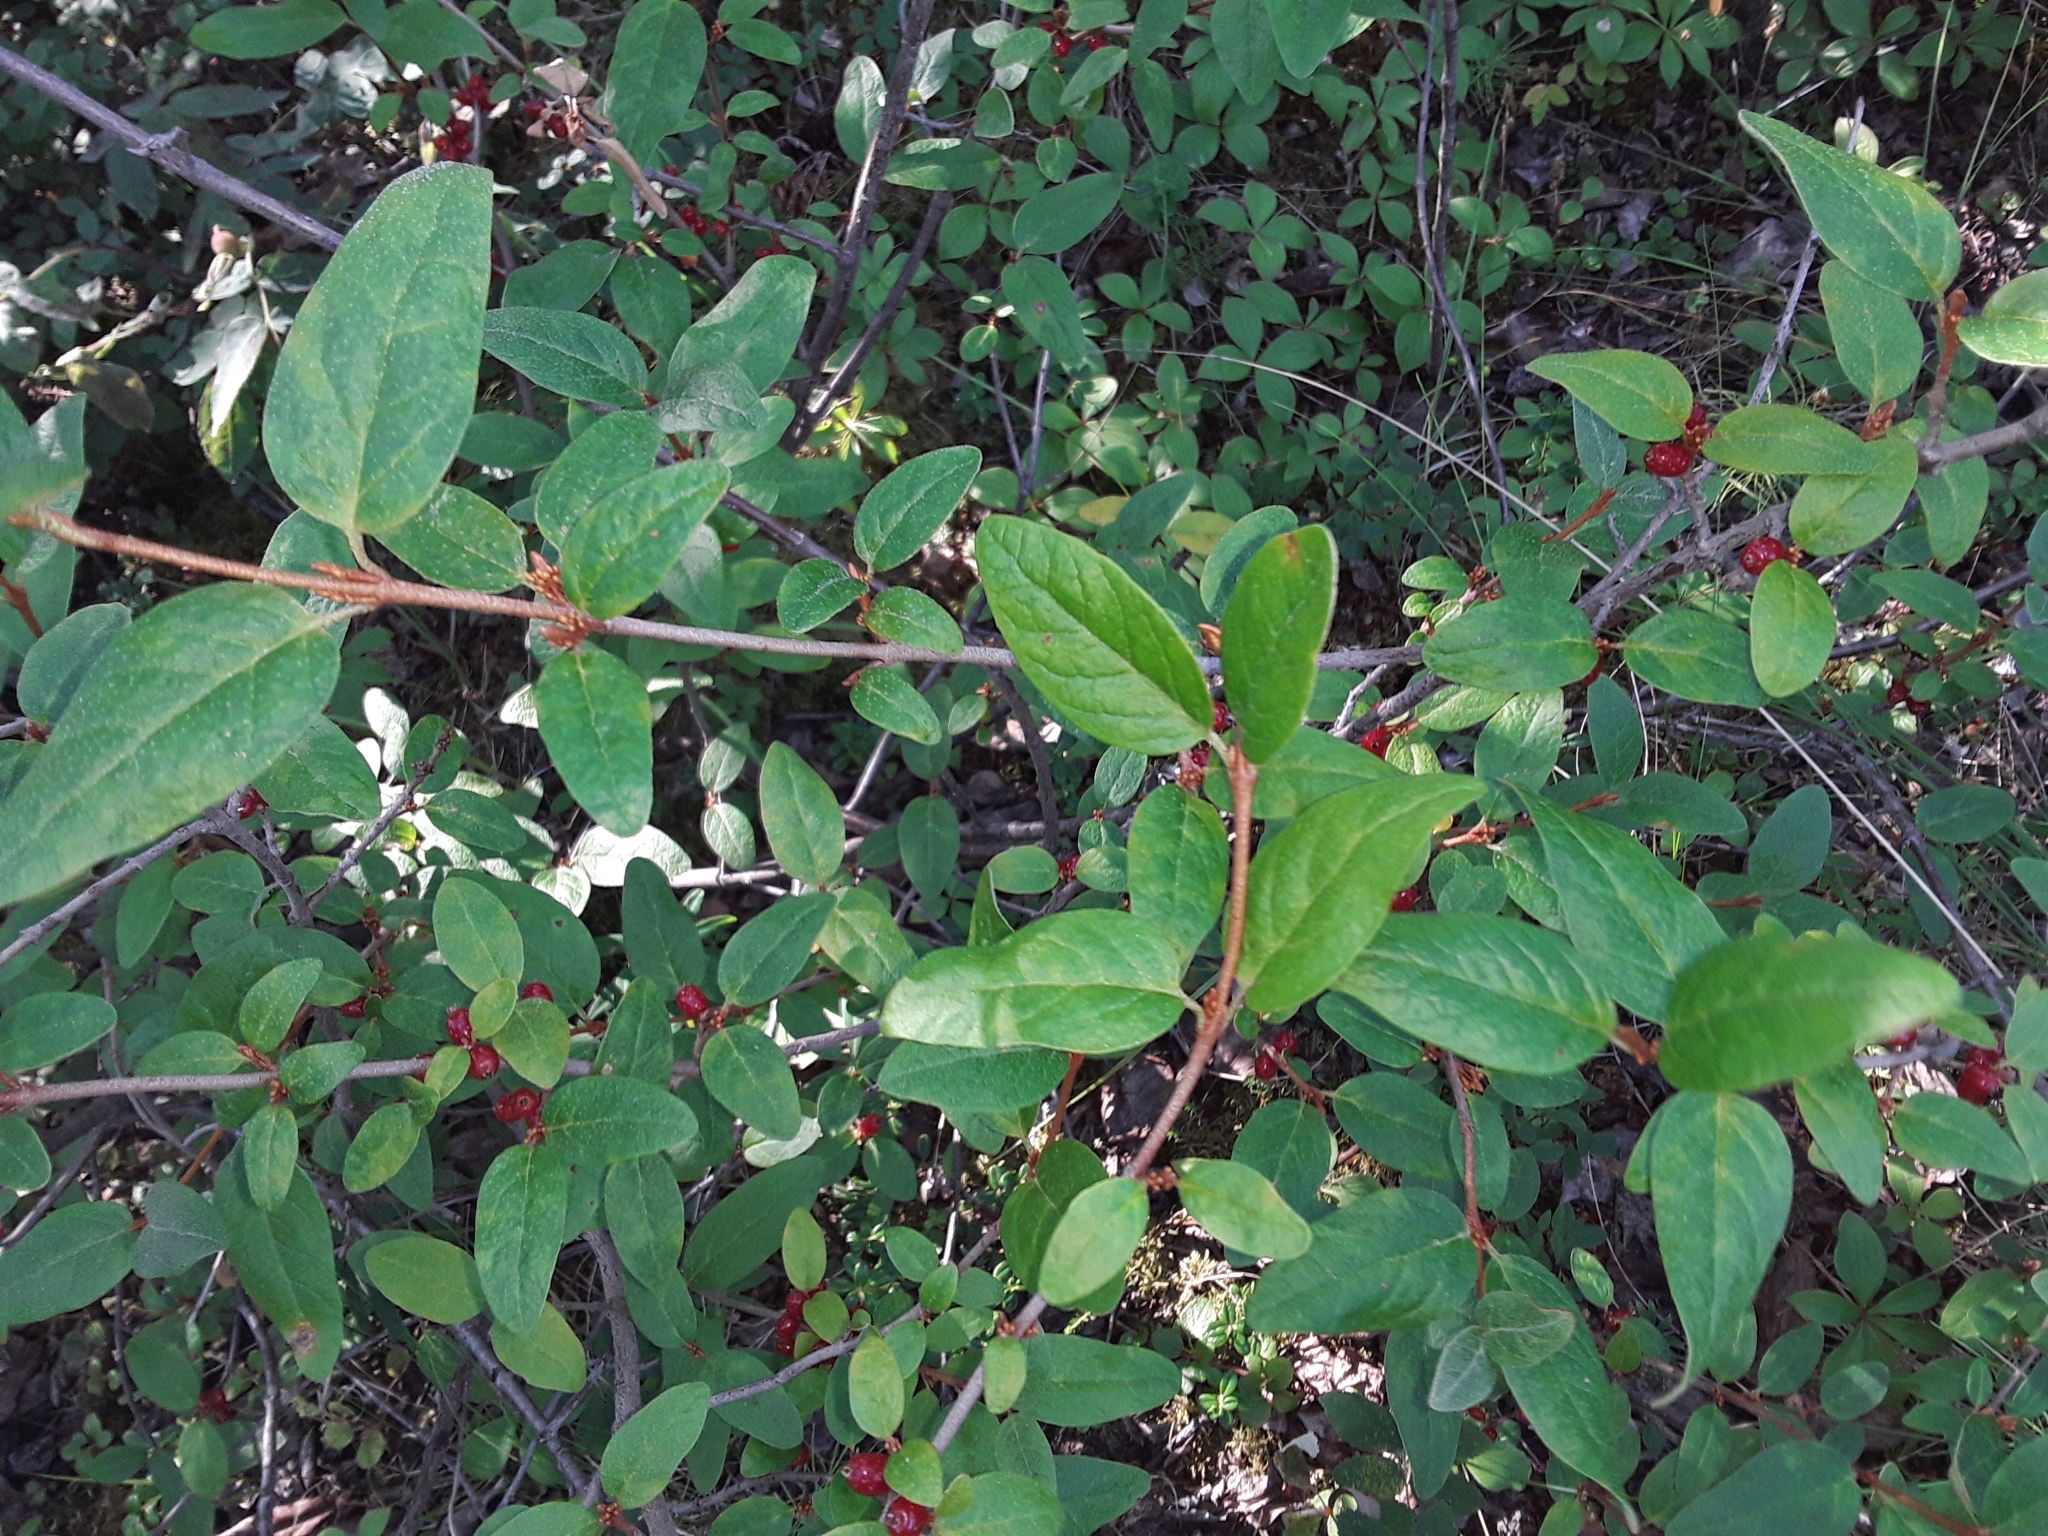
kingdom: Plantae
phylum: Tracheophyta
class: Magnoliopsida
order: Rosales
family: Elaeagnaceae
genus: Shepherdia
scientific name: Shepherdia canadensis
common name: Soapberry
